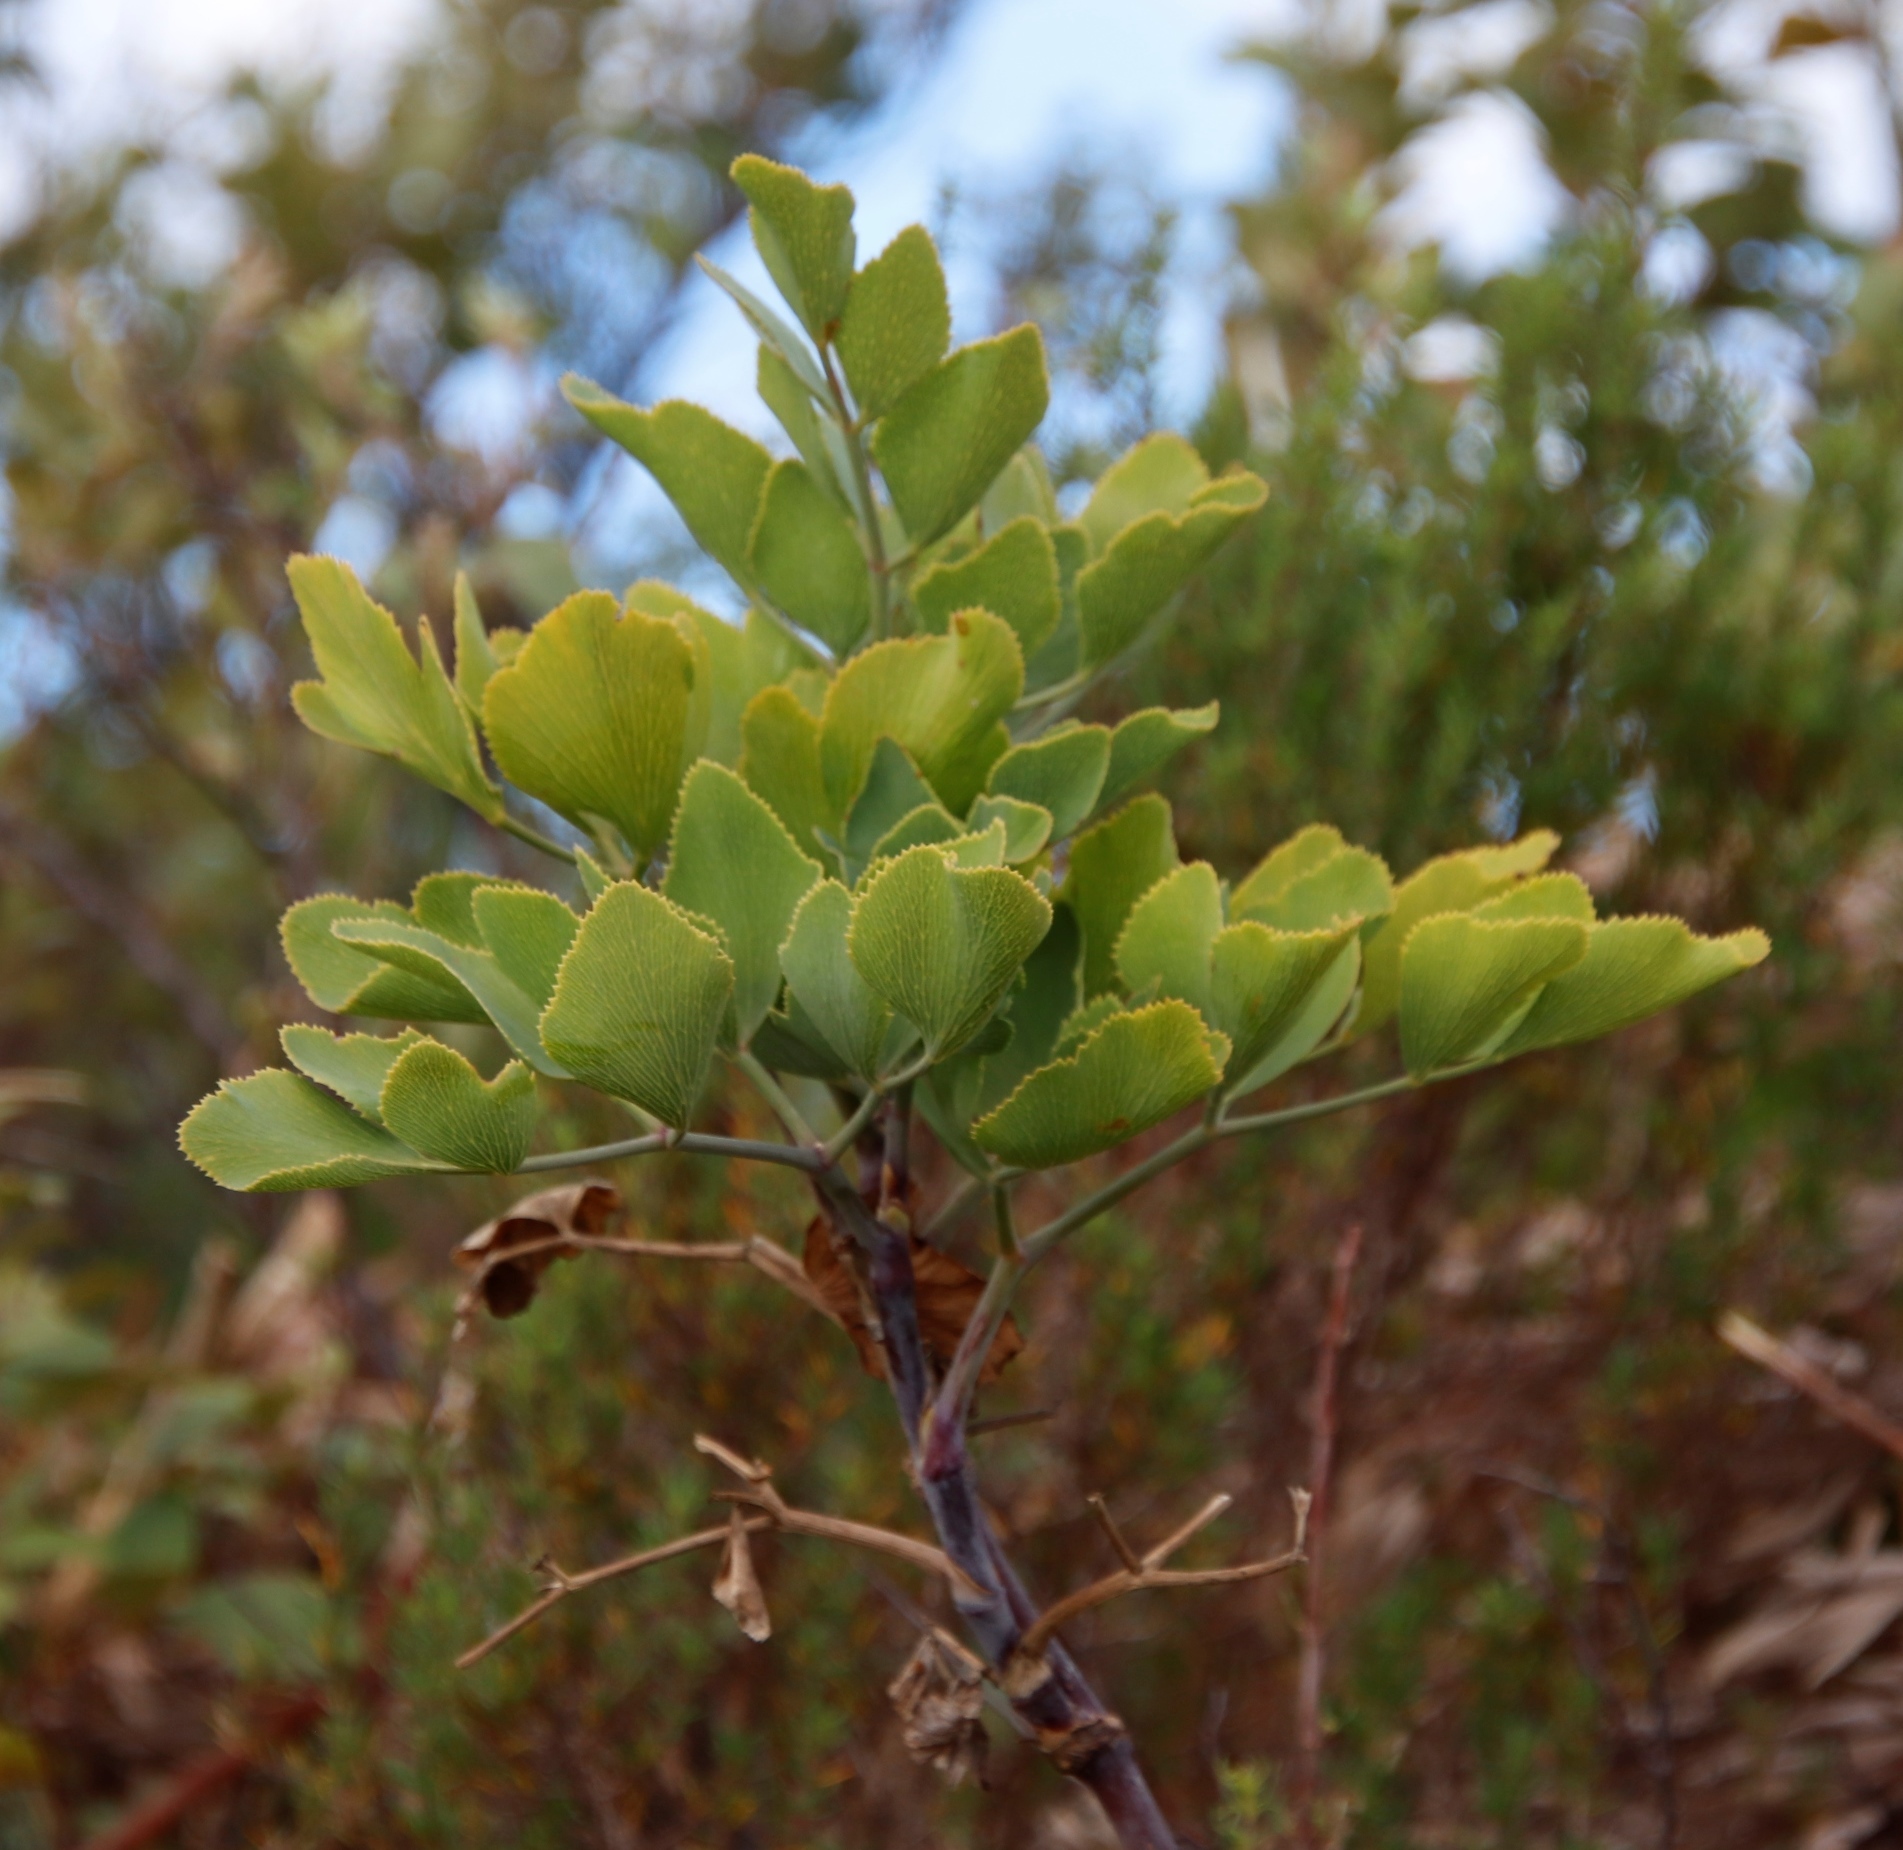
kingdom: Plantae
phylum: Tracheophyta
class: Magnoliopsida
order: Apiales
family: Apiaceae
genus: Notobubon
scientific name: Notobubon galbanum
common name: Blisterbush
